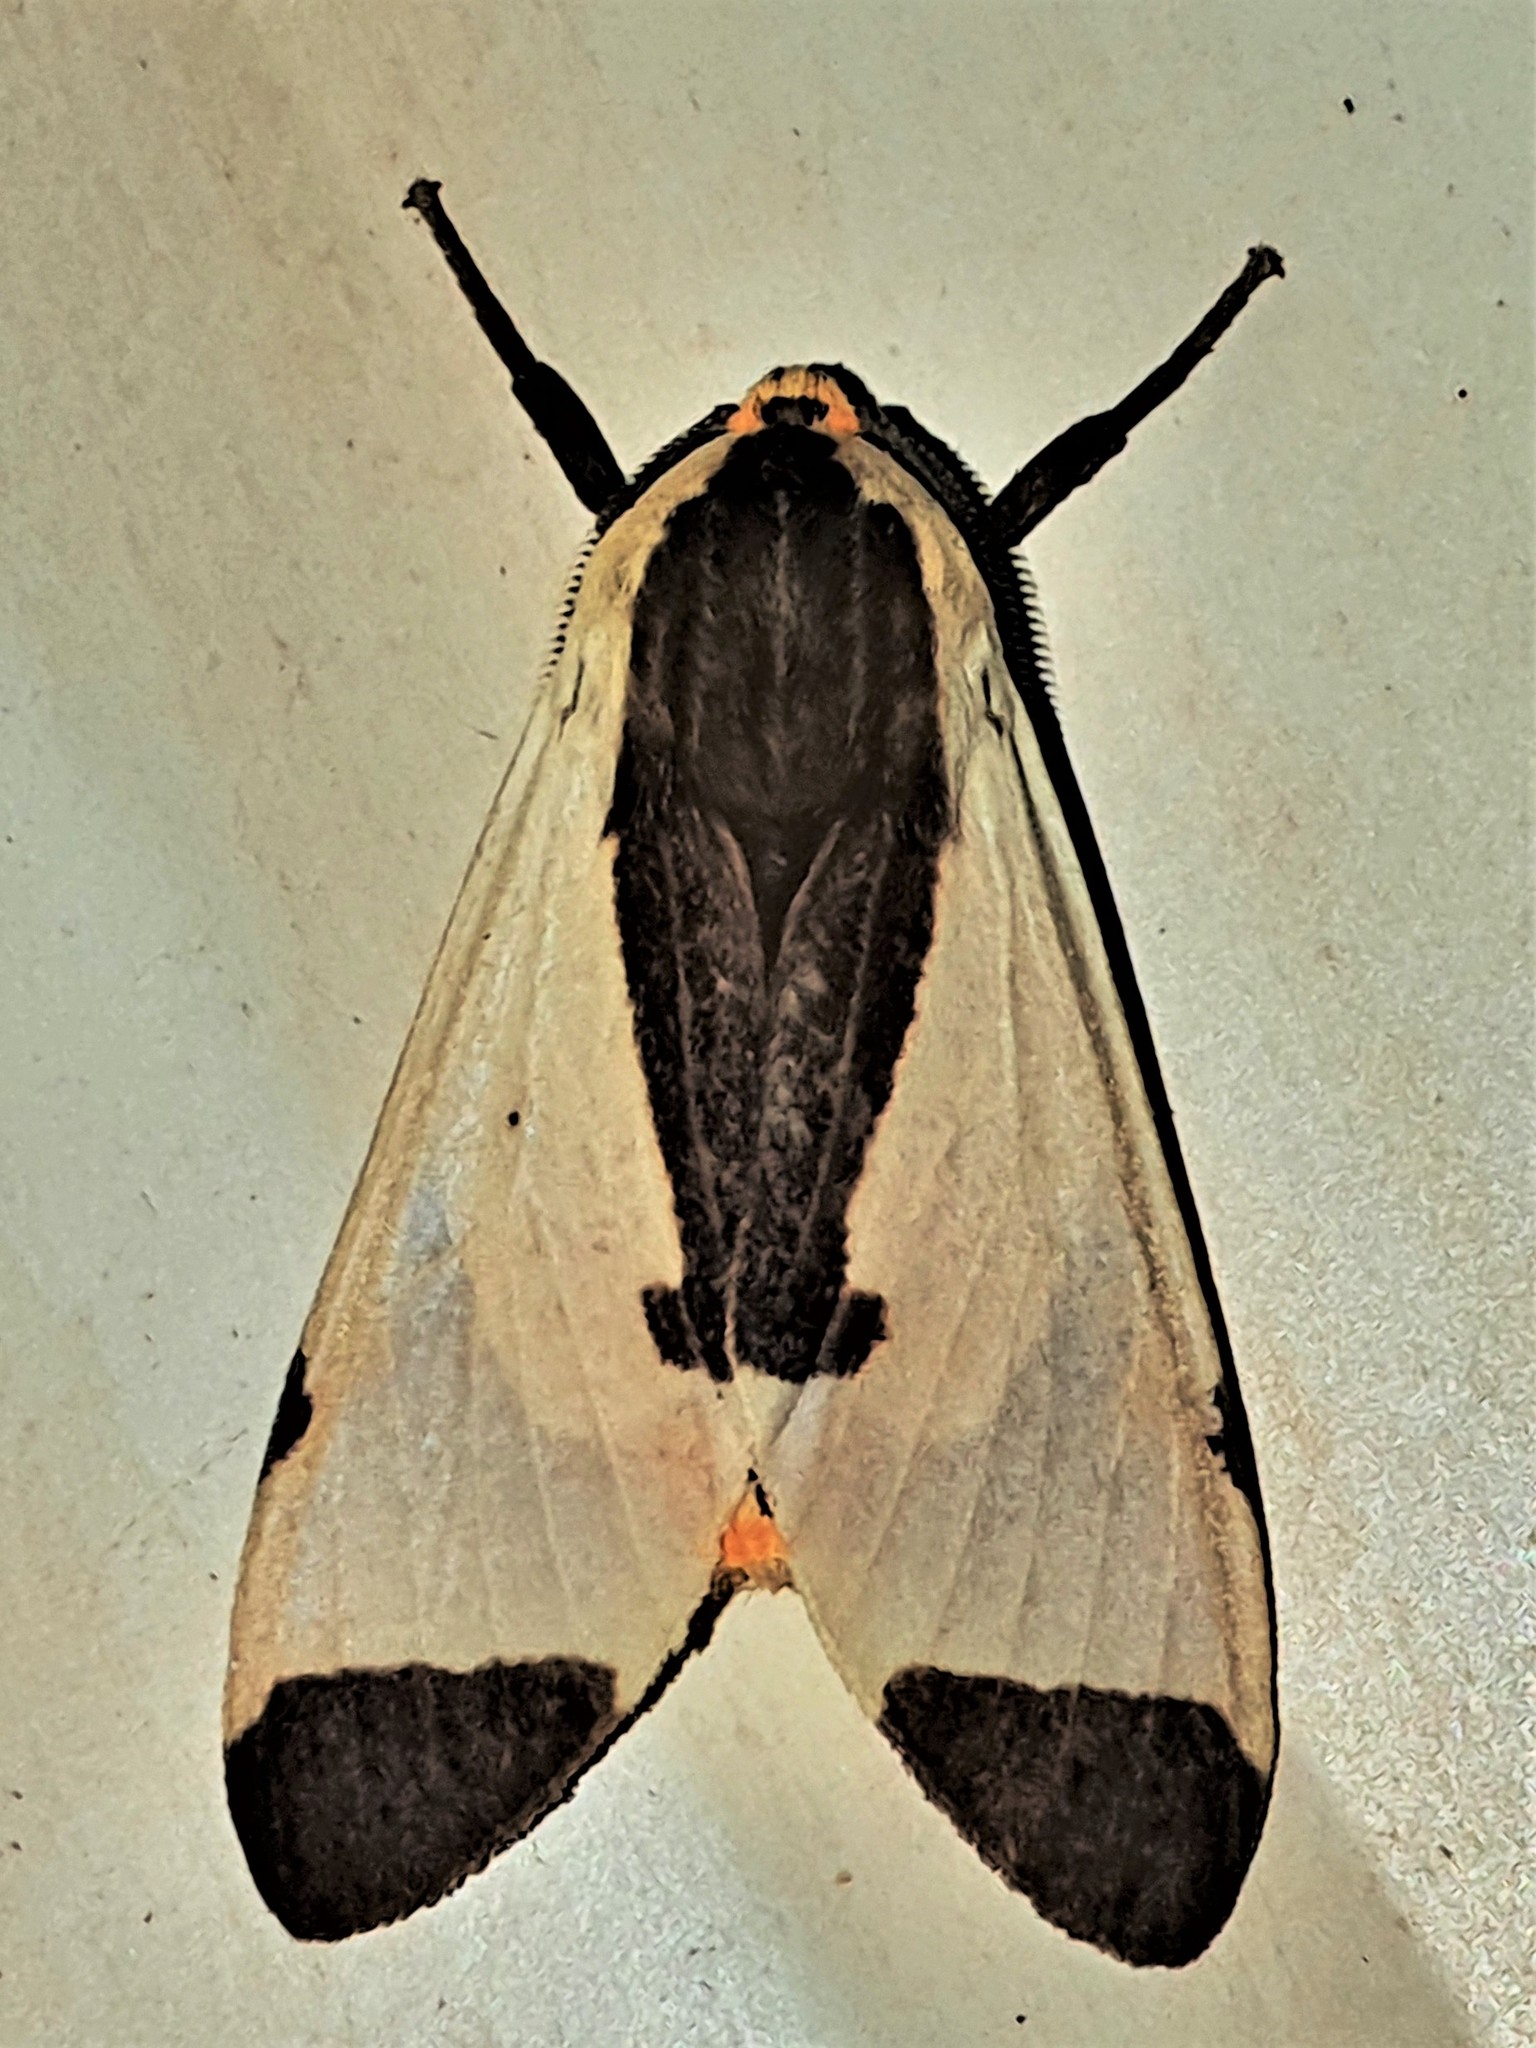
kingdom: Animalia
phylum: Arthropoda
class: Insecta
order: Lepidoptera
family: Erebidae
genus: Pryteria
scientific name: Pryteria hamifera
